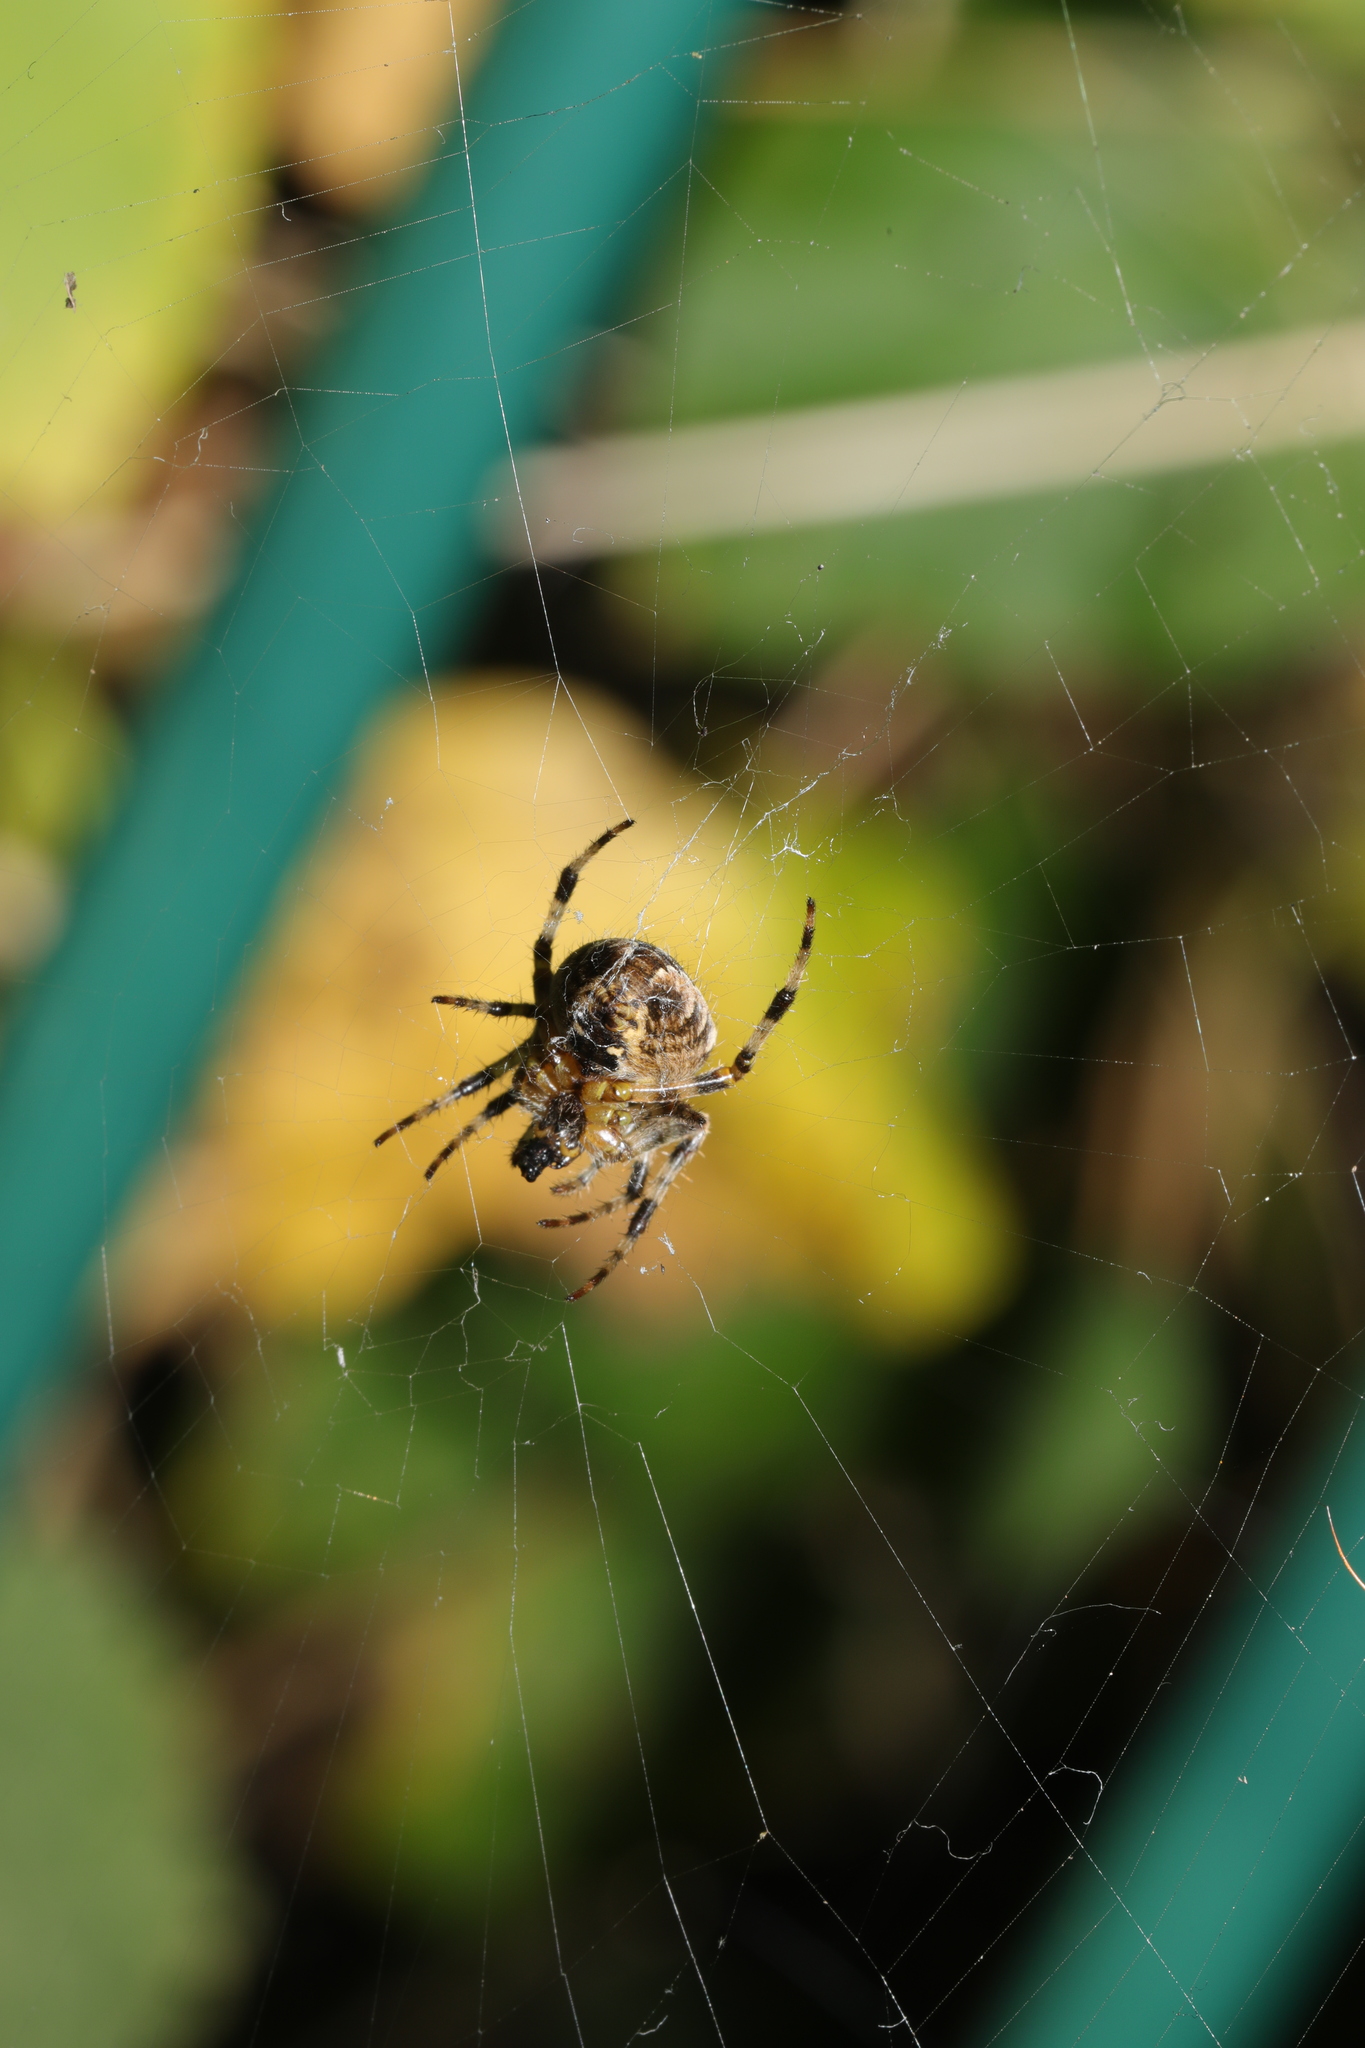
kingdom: Animalia
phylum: Arthropoda
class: Arachnida
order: Araneae
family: Araneidae
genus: Araneus
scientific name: Araneus diadematus
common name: Cross orbweaver
